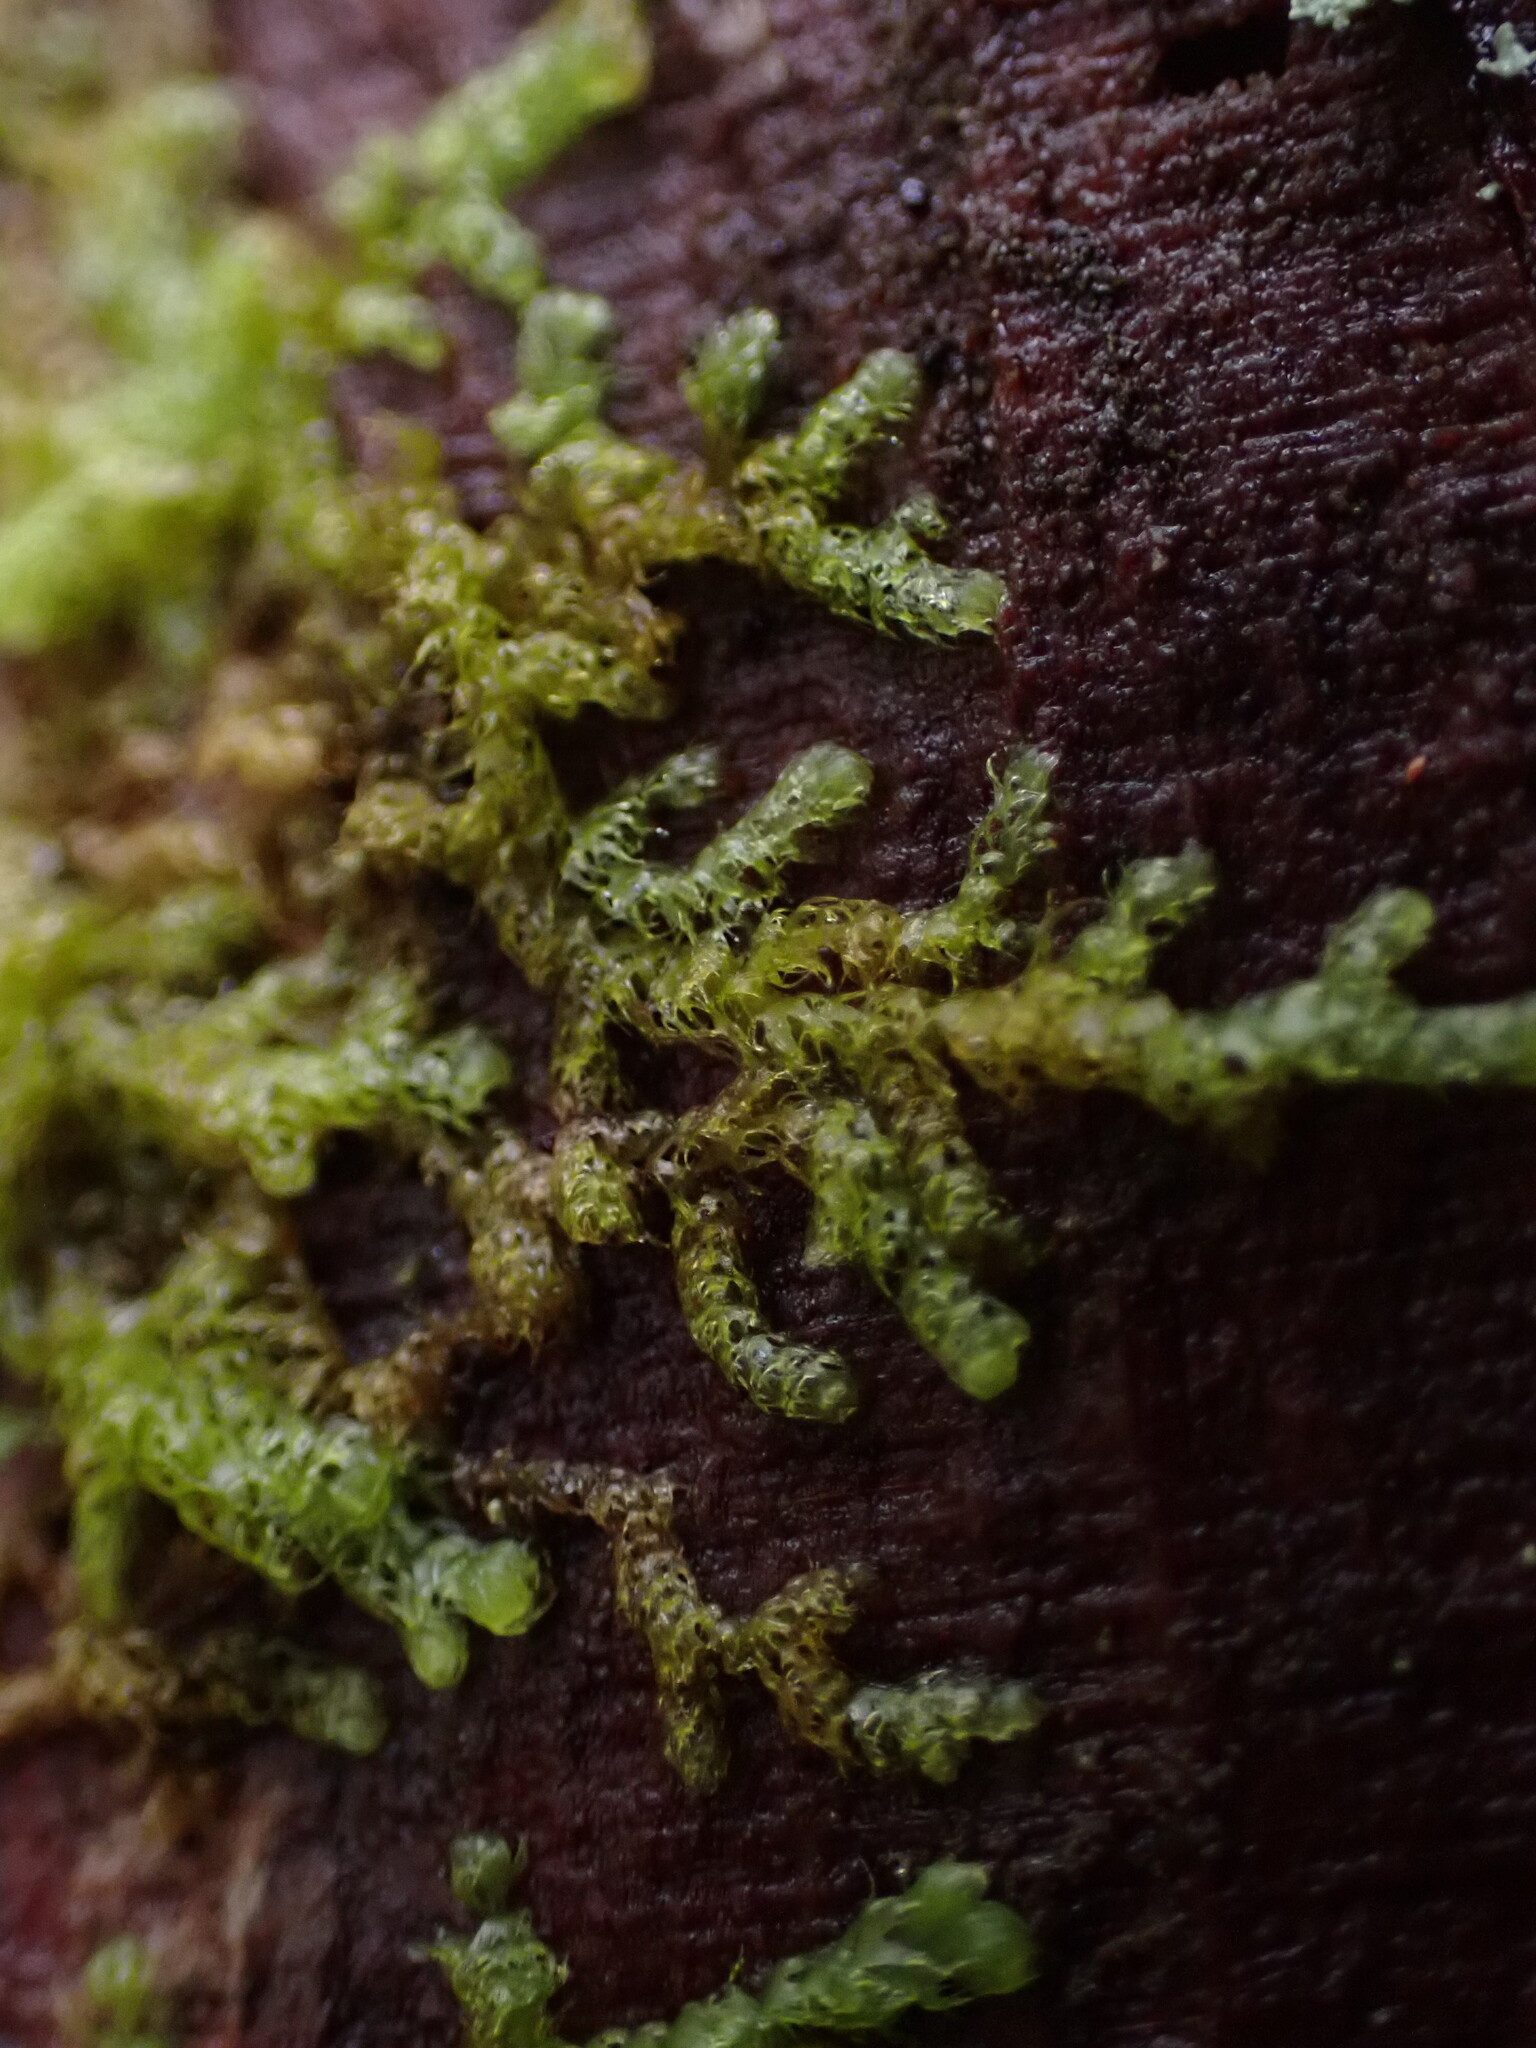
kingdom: Plantae
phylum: Marchantiophyta
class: Jungermanniopsida
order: Ptilidiales
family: Ptilidiaceae
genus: Ptilidium
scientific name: Ptilidium californicum
